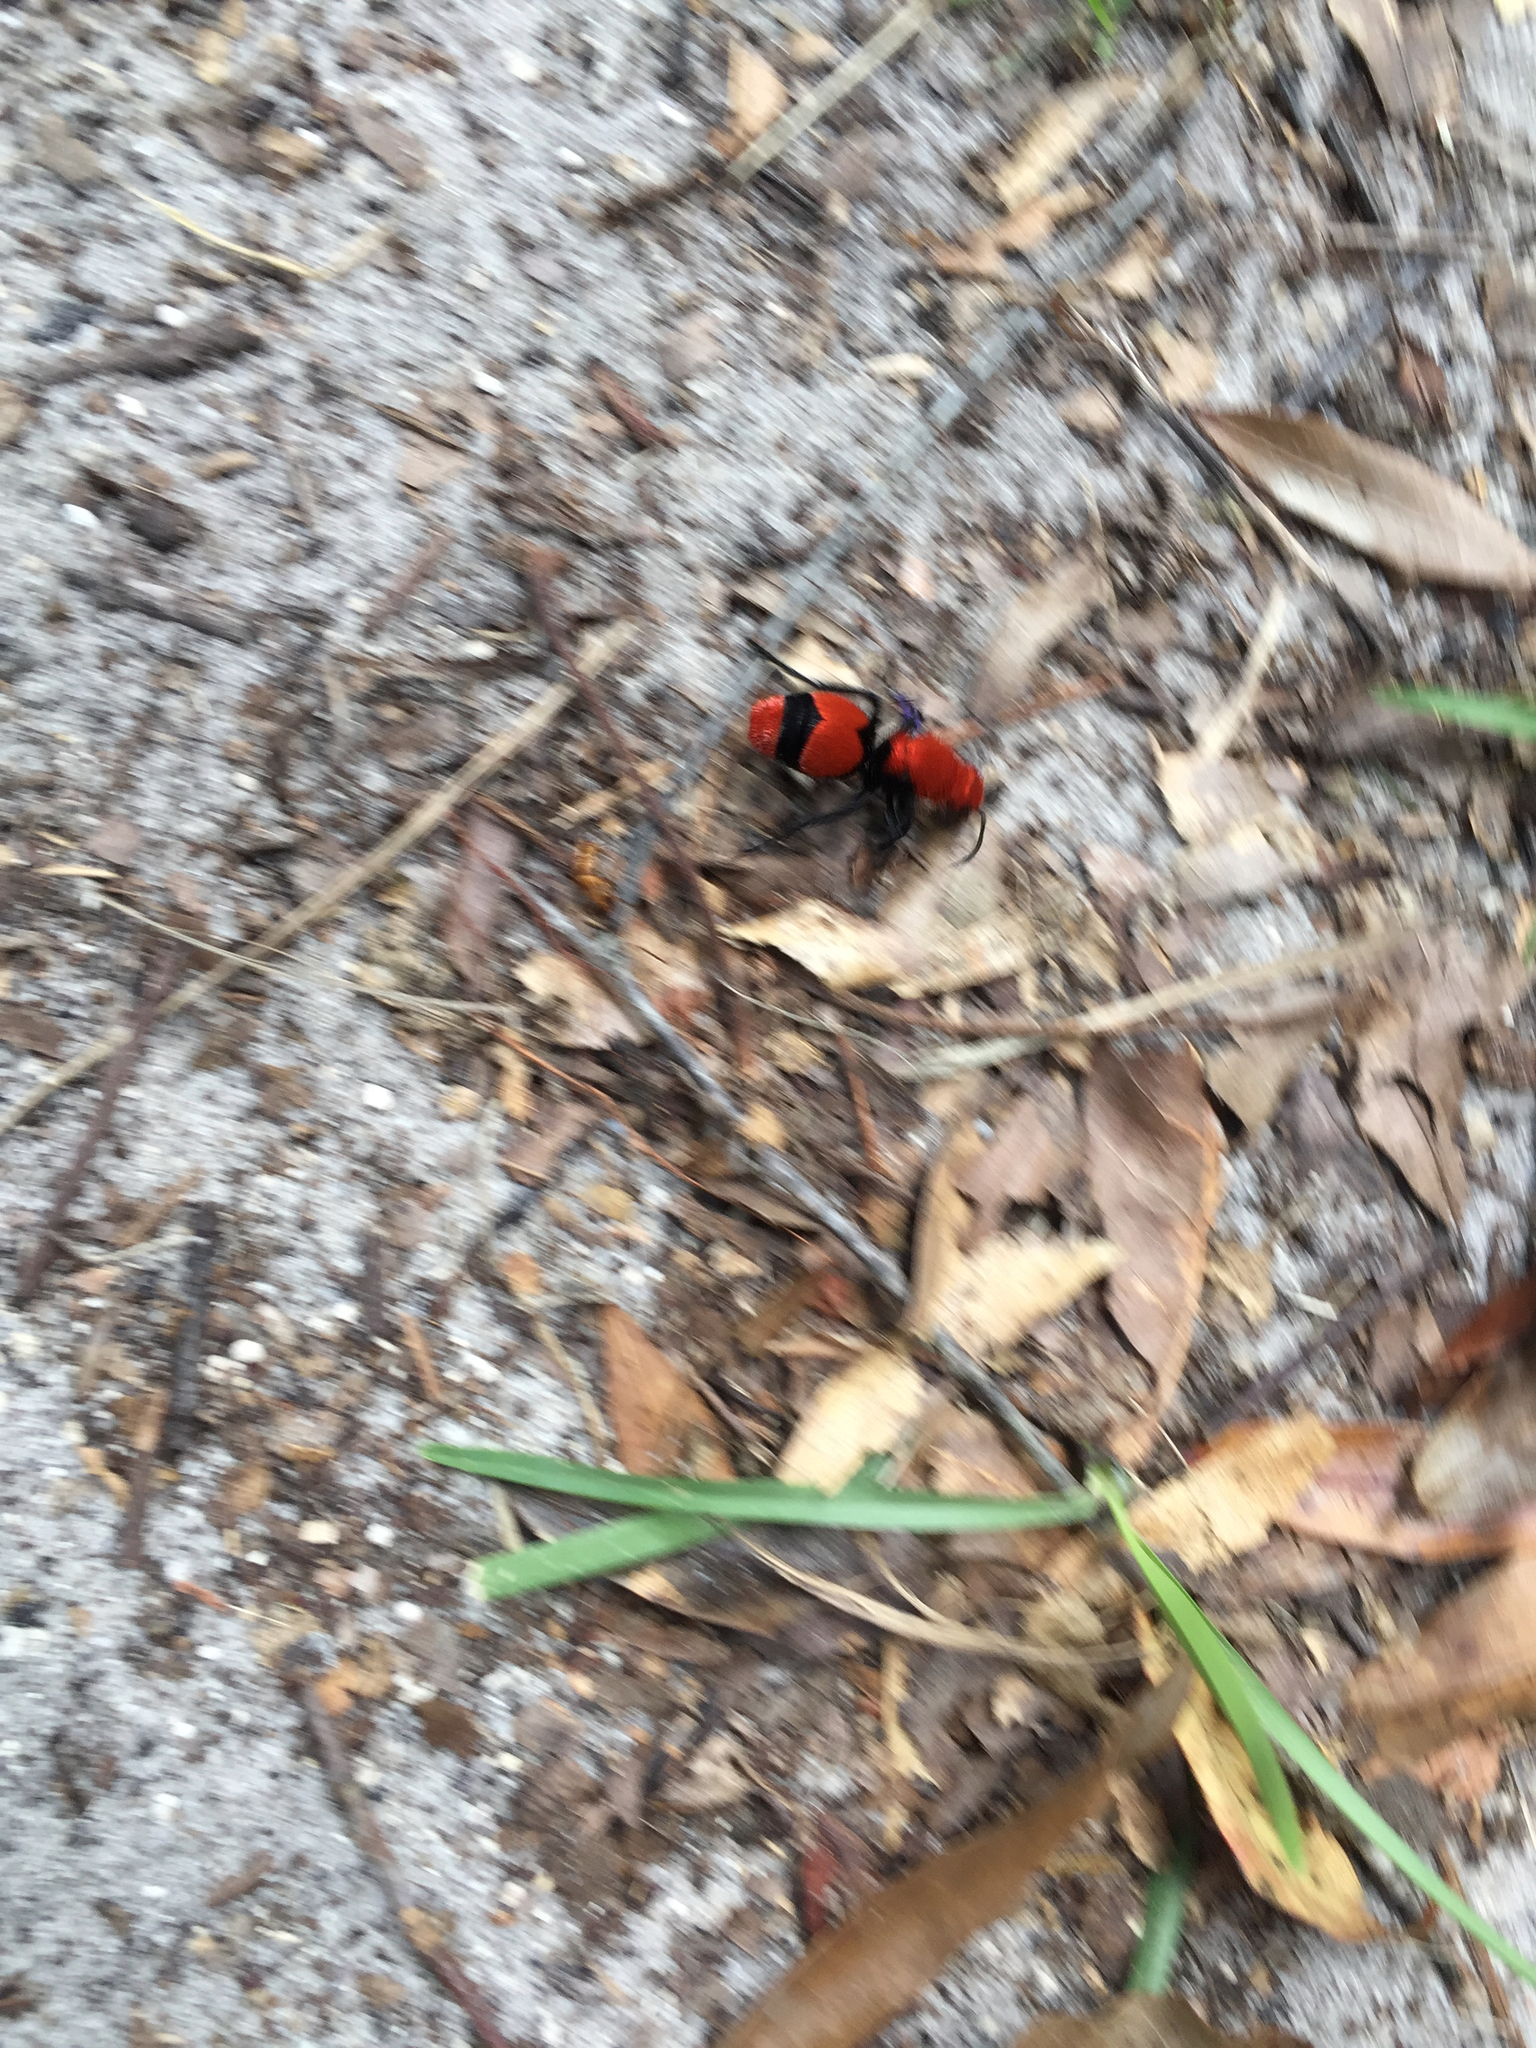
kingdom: Animalia
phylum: Arthropoda
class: Insecta
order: Hymenoptera
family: Mutillidae
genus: Dasymutilla
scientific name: Dasymutilla occidentalis
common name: Common eastern velvet ant
